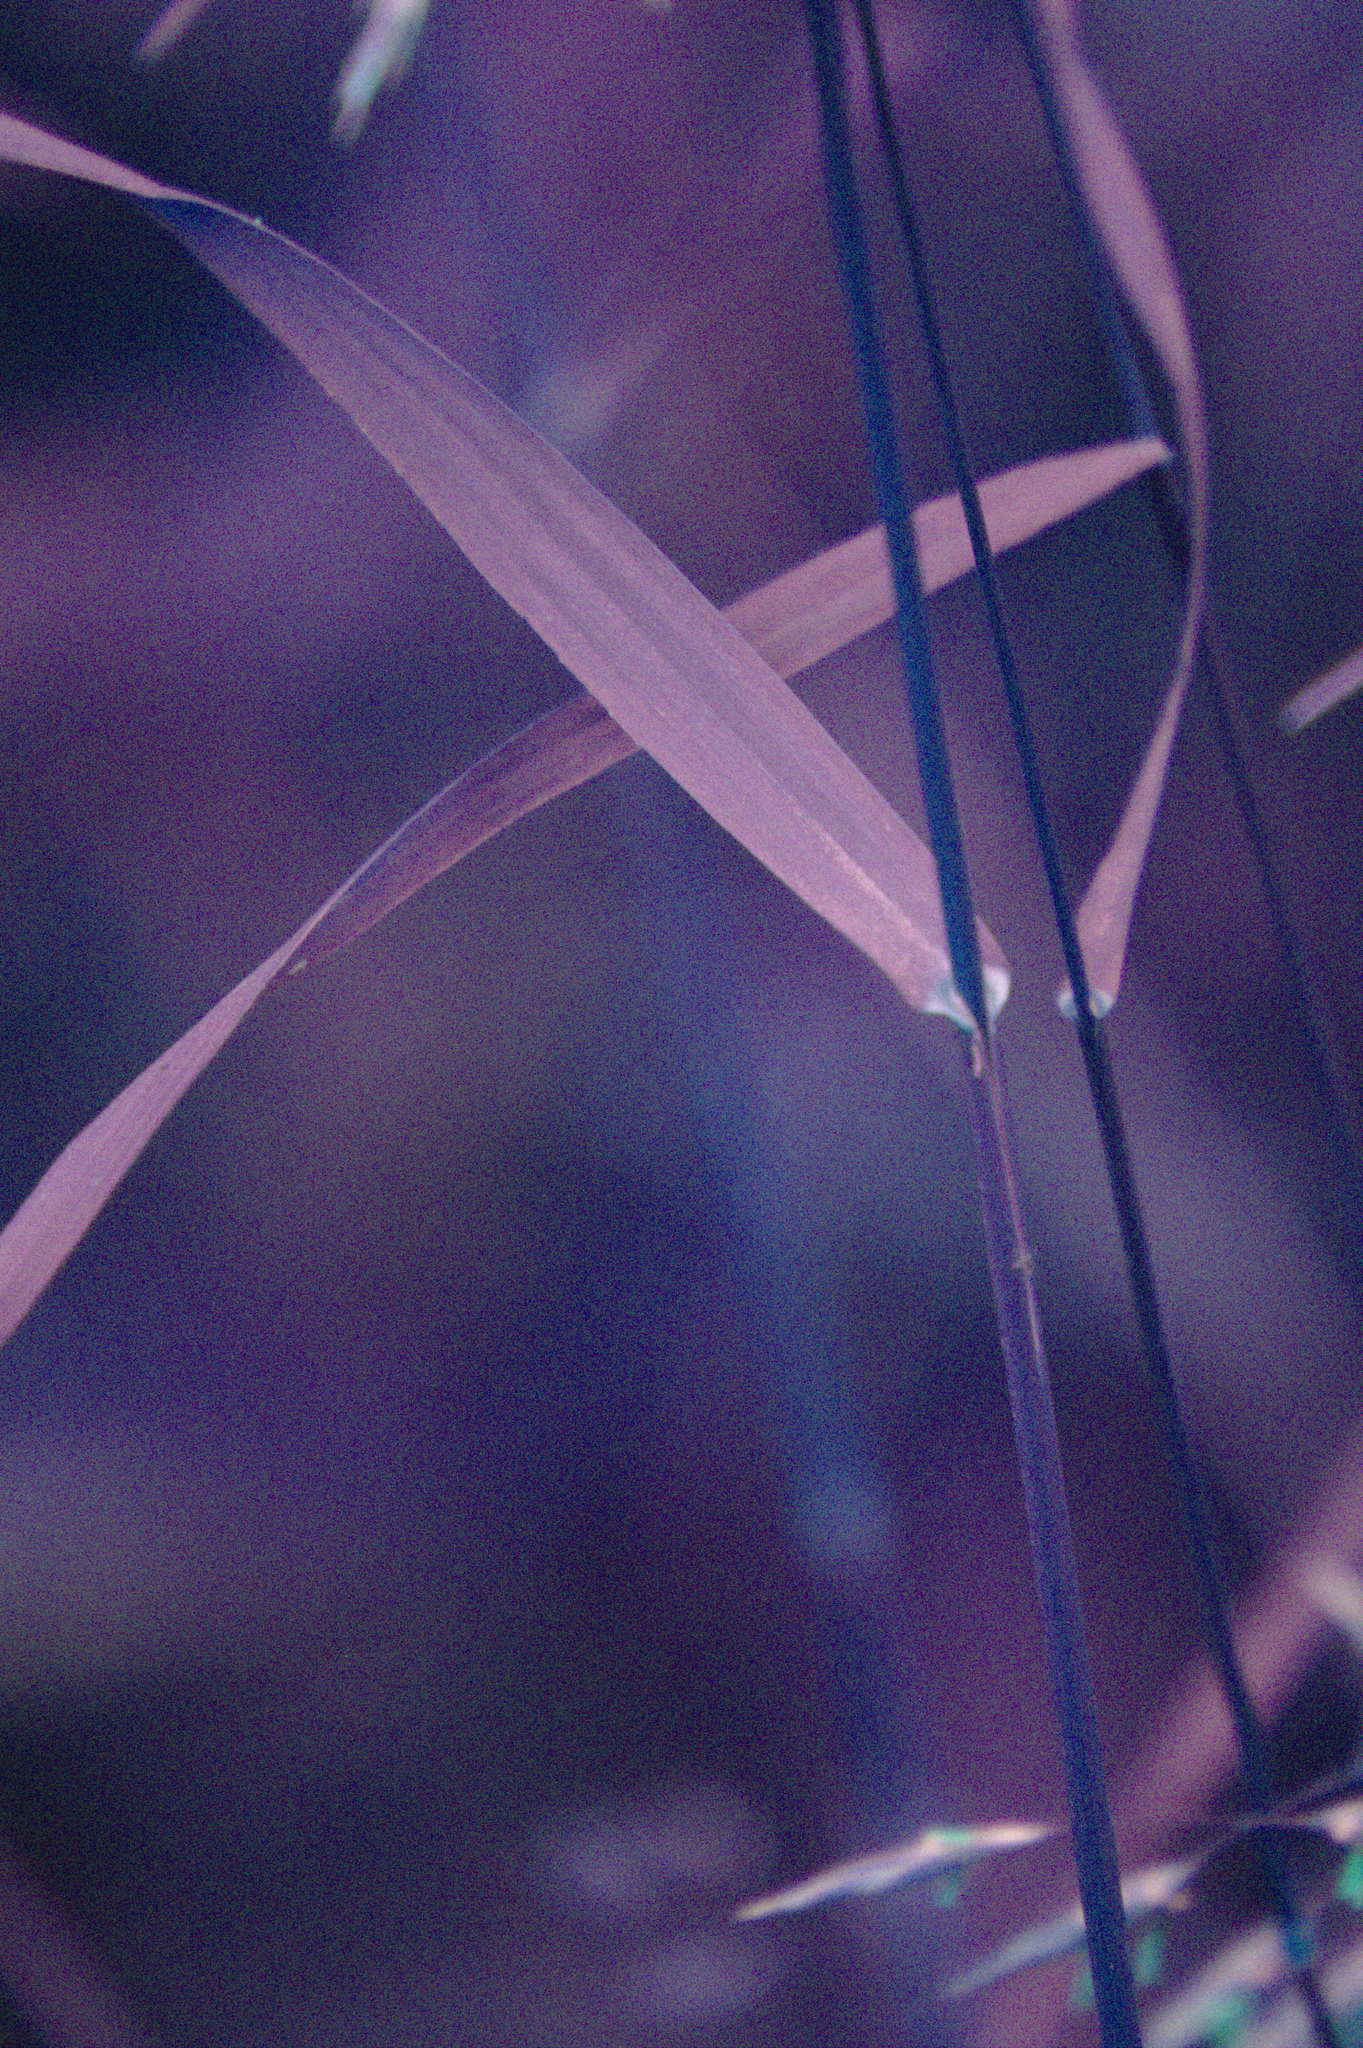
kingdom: Plantae
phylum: Tracheophyta
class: Liliopsida
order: Poales
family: Poaceae
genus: Bromus
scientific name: Bromus inermis
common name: Smooth brome
